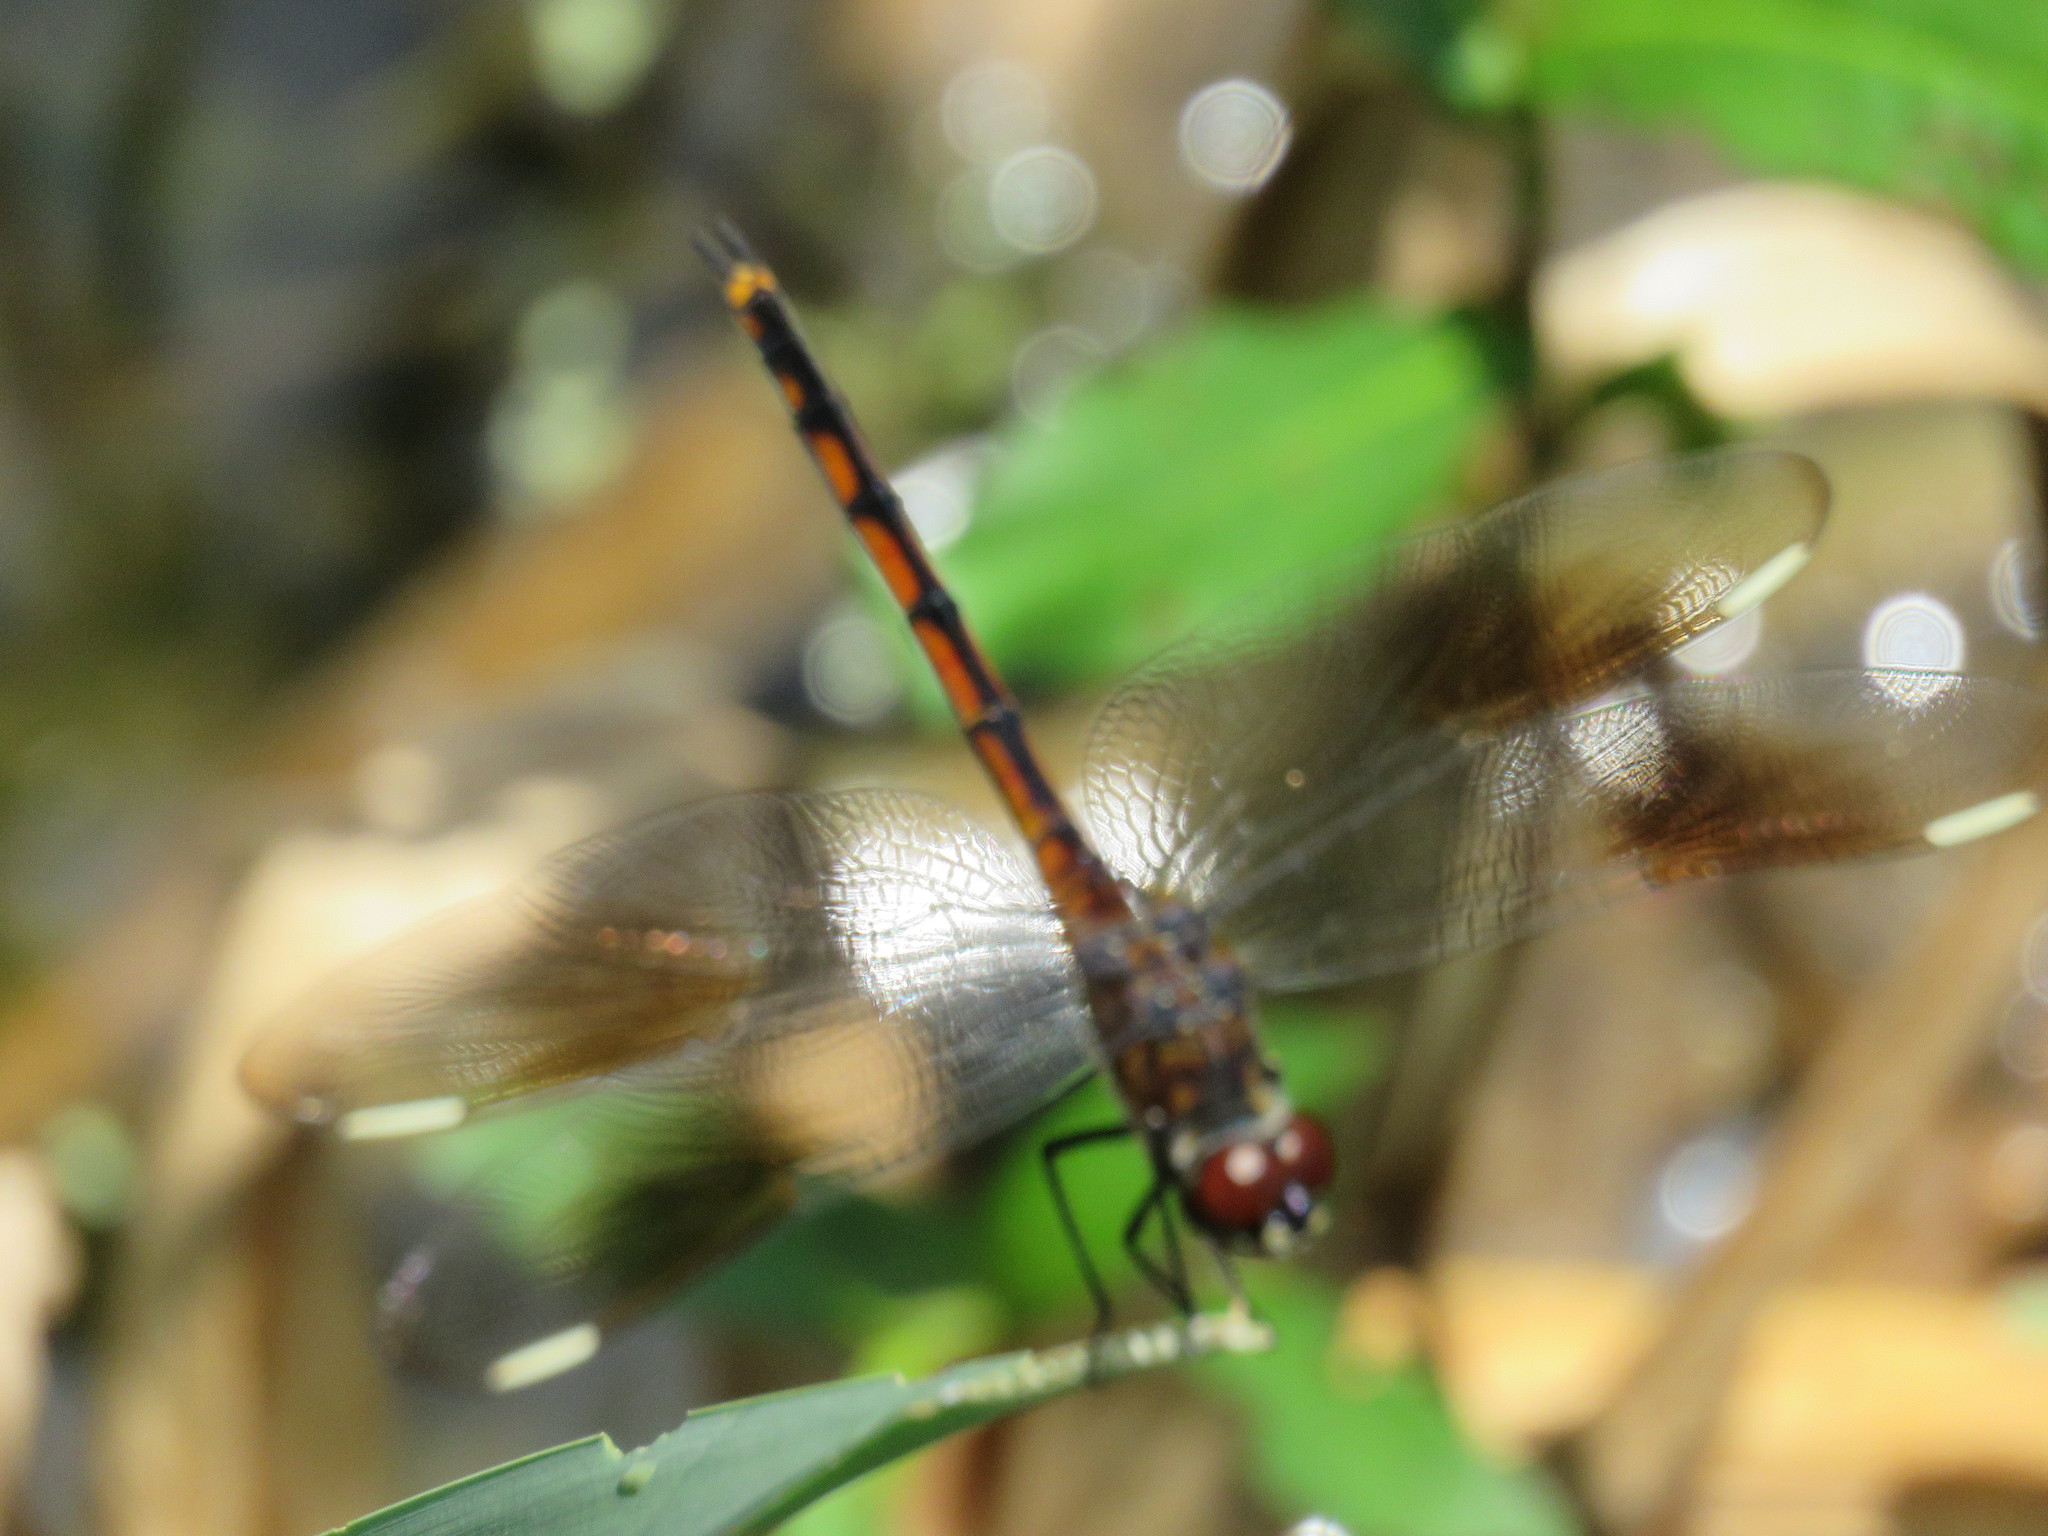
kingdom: Animalia
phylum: Arthropoda
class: Insecta
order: Odonata
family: Libellulidae
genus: Brachymesia
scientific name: Brachymesia gravida
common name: Four-spotted pennant
